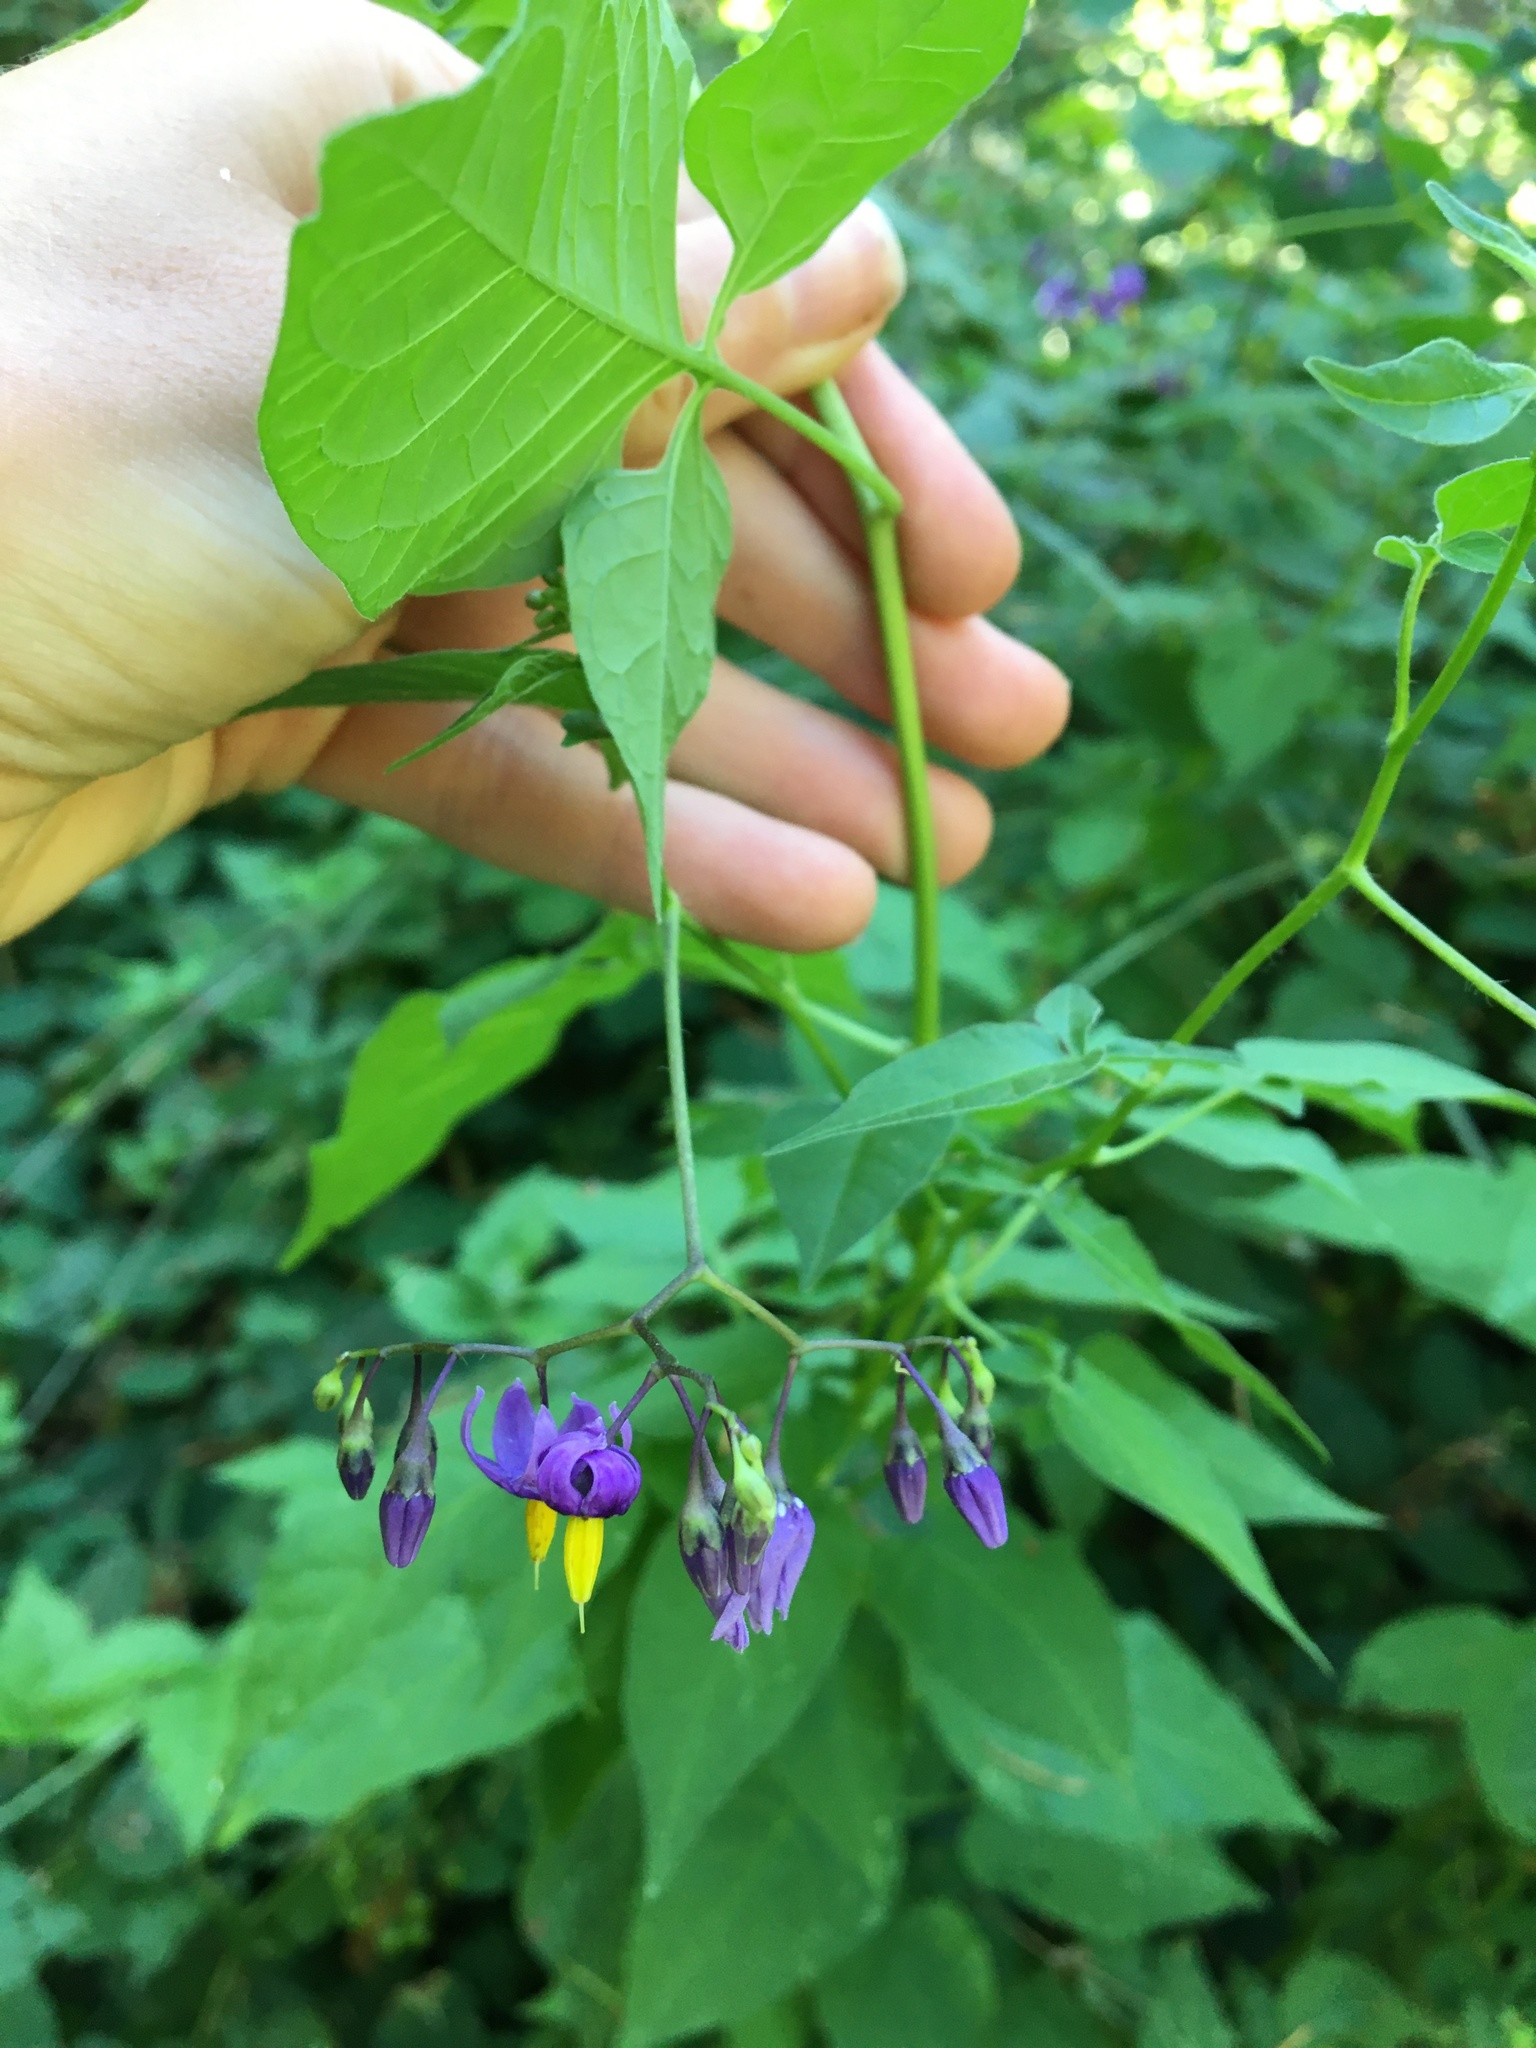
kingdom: Plantae
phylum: Tracheophyta
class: Magnoliopsida
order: Solanales
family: Solanaceae
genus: Solanum
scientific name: Solanum dulcamara
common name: Climbing nightshade
